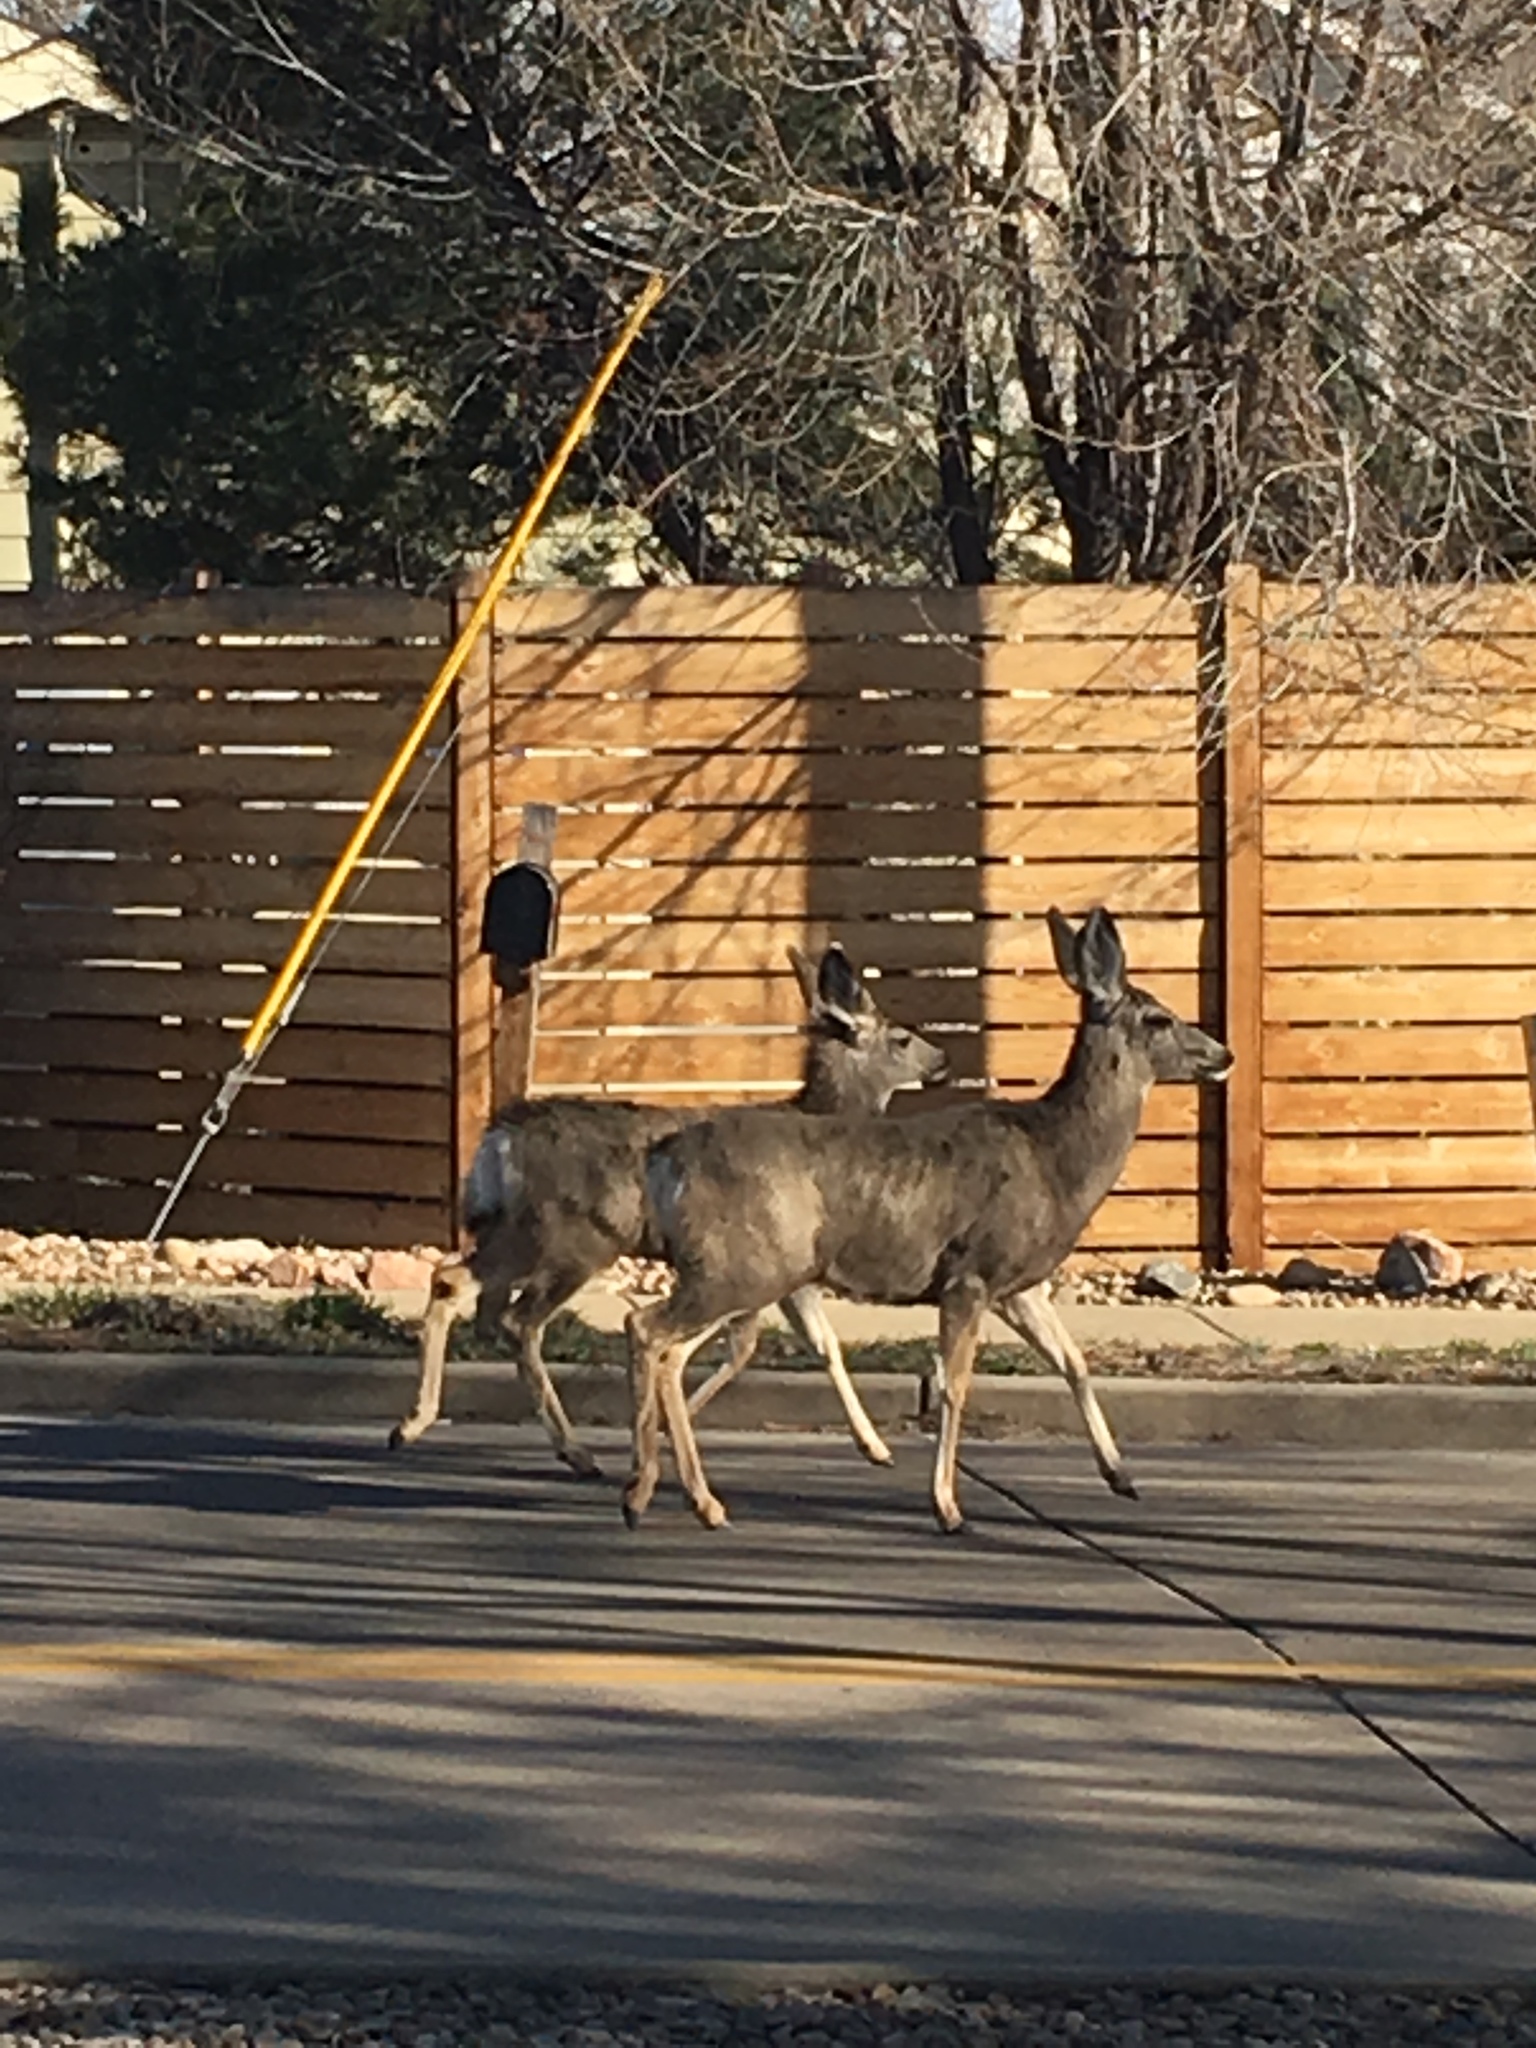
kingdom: Animalia
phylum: Chordata
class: Mammalia
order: Artiodactyla
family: Cervidae
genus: Odocoileus
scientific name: Odocoileus hemionus
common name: Mule deer
